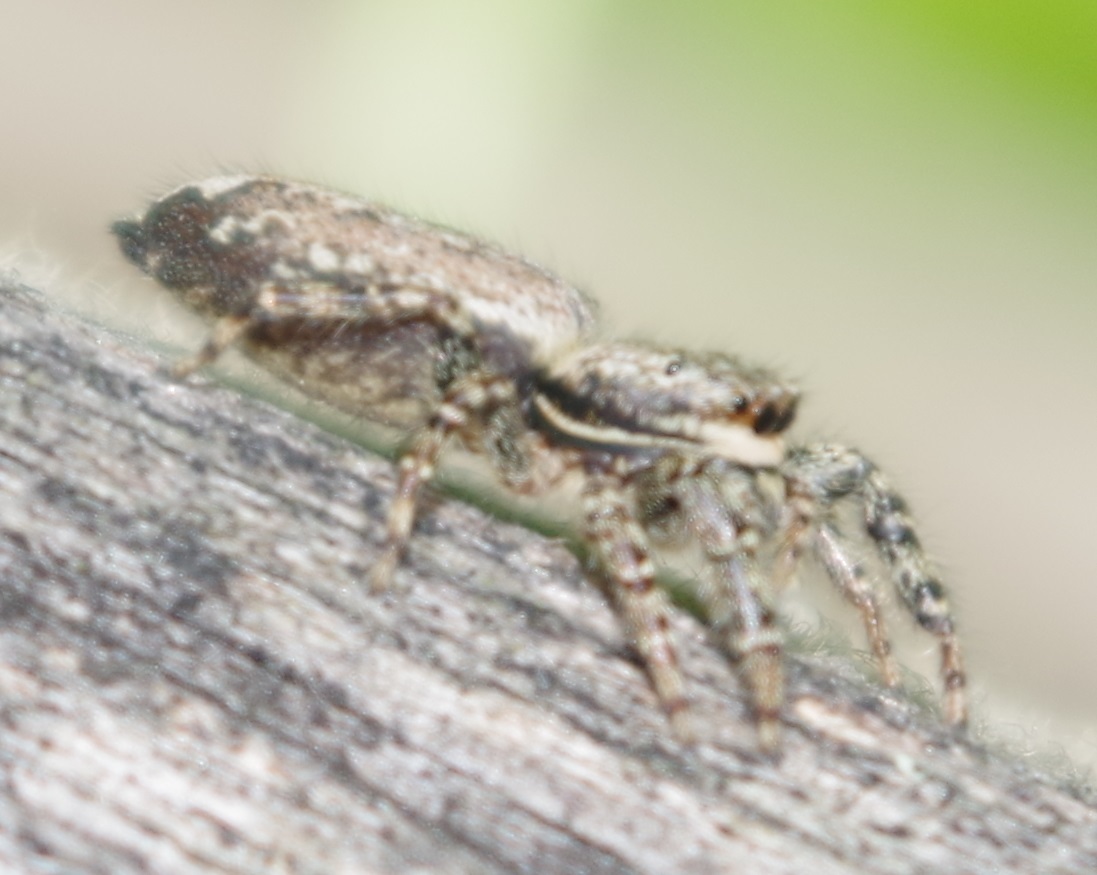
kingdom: Animalia
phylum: Arthropoda
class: Arachnida
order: Araneae
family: Salticidae
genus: Marpissa
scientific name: Marpissa muscosa
